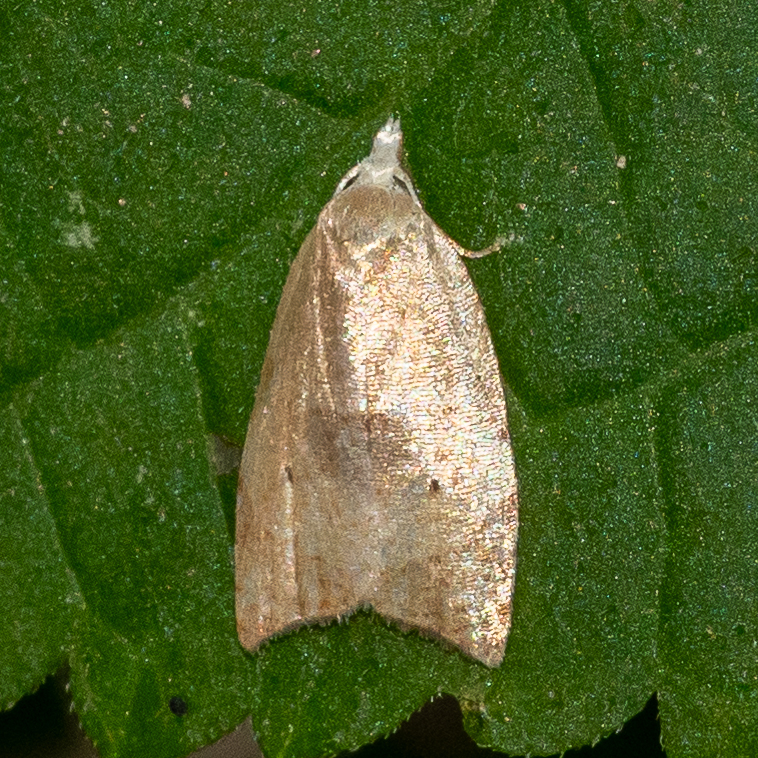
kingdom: Animalia
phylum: Arthropoda
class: Insecta
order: Lepidoptera
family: Tortricidae
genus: Coelostathma
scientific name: Coelostathma discopunctana
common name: Batman moth
